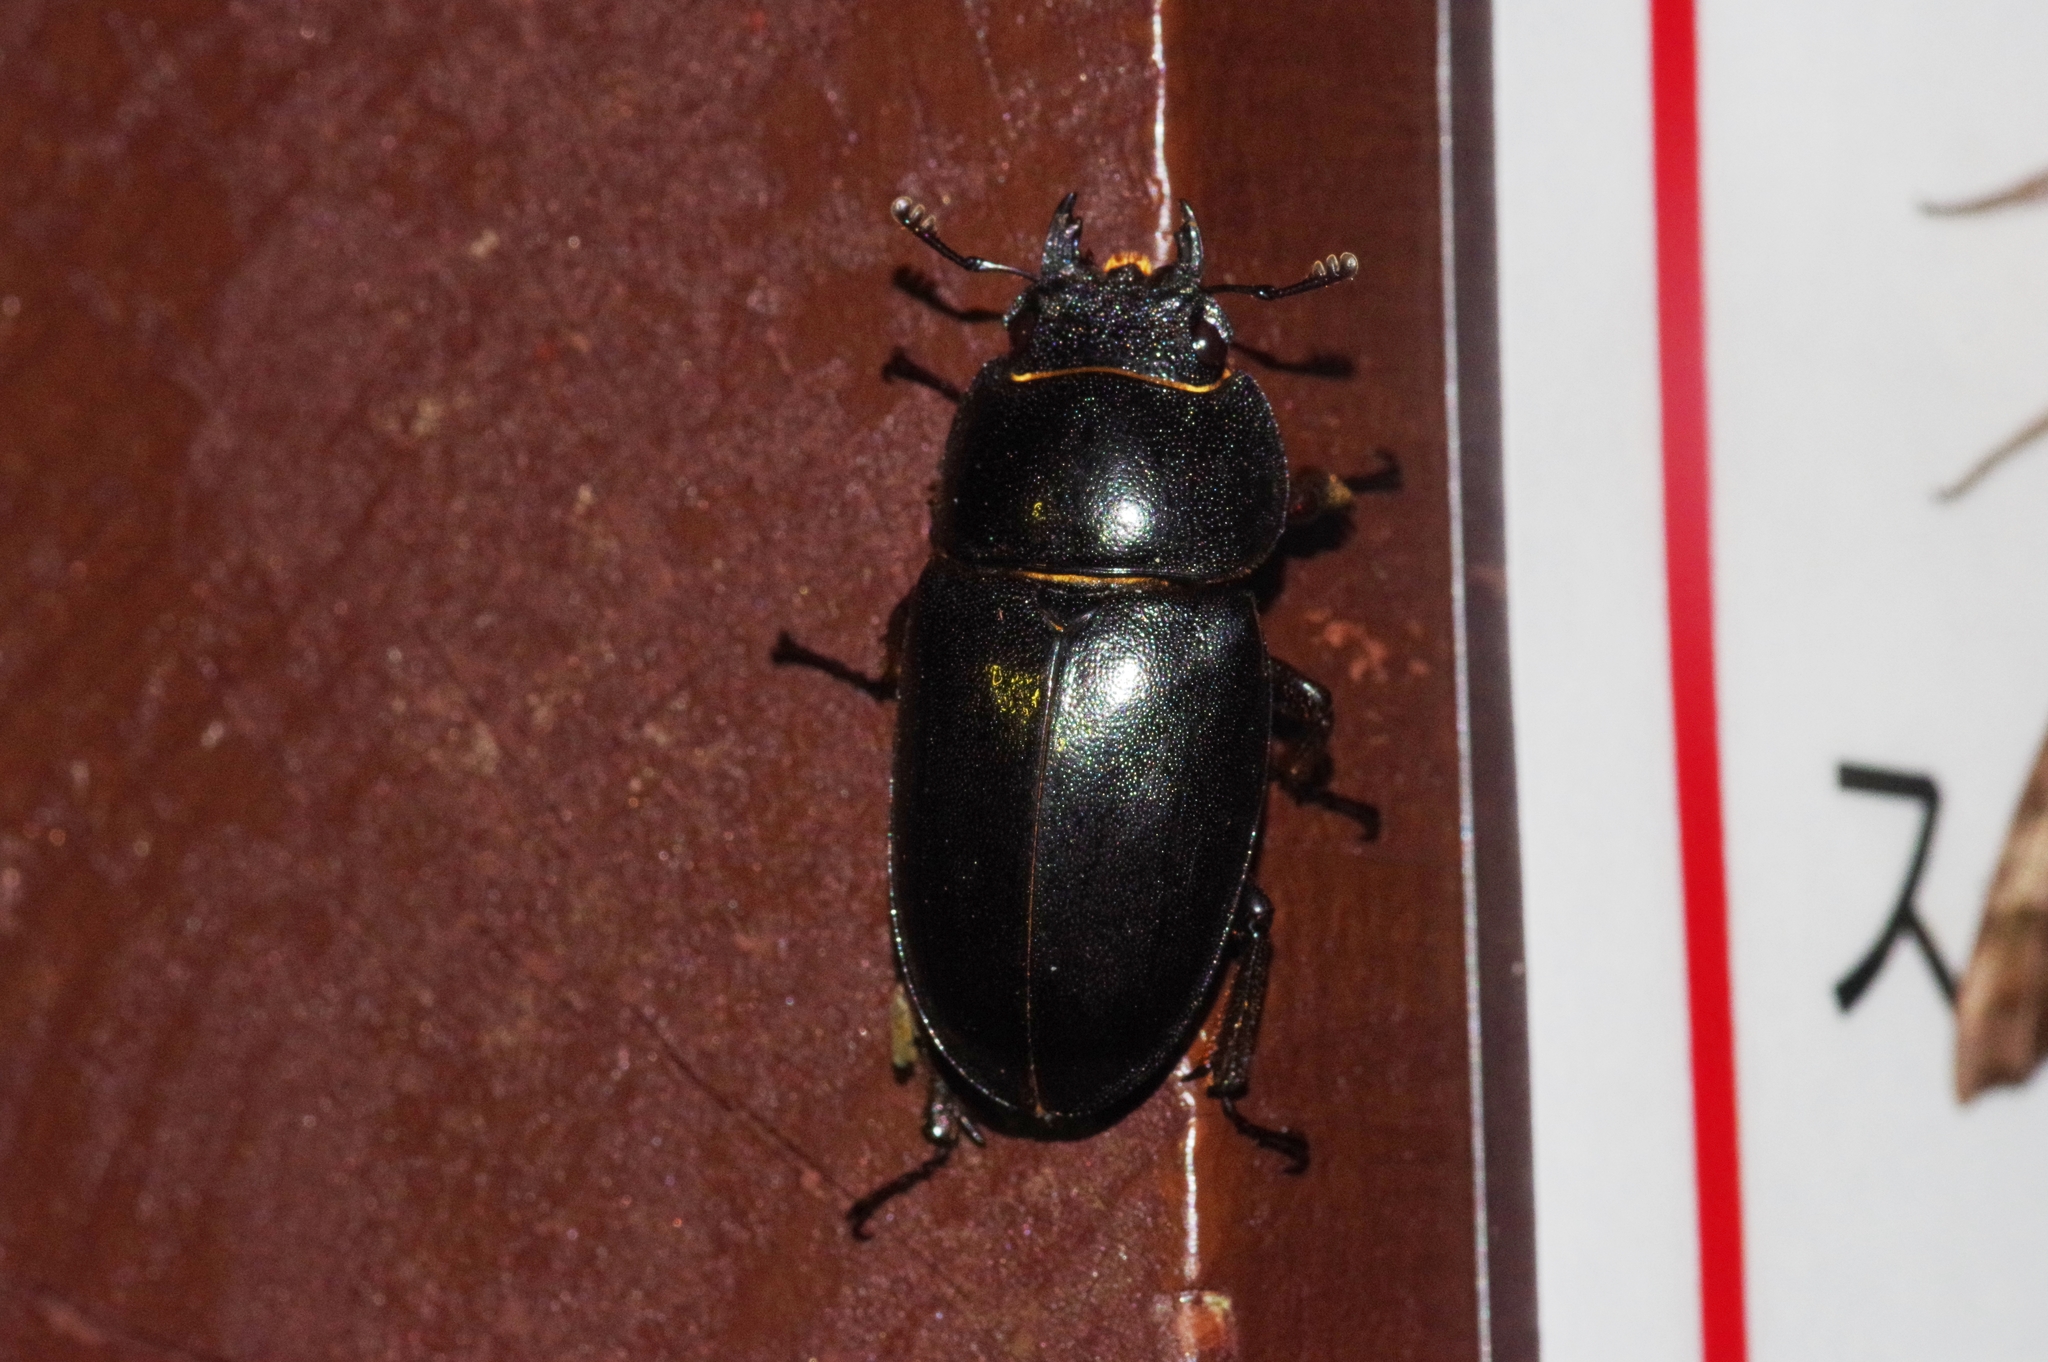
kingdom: Animalia
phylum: Arthropoda
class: Insecta
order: Coleoptera
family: Lucanidae
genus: Prosopocoilus
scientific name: Prosopocoilus dissimilis
